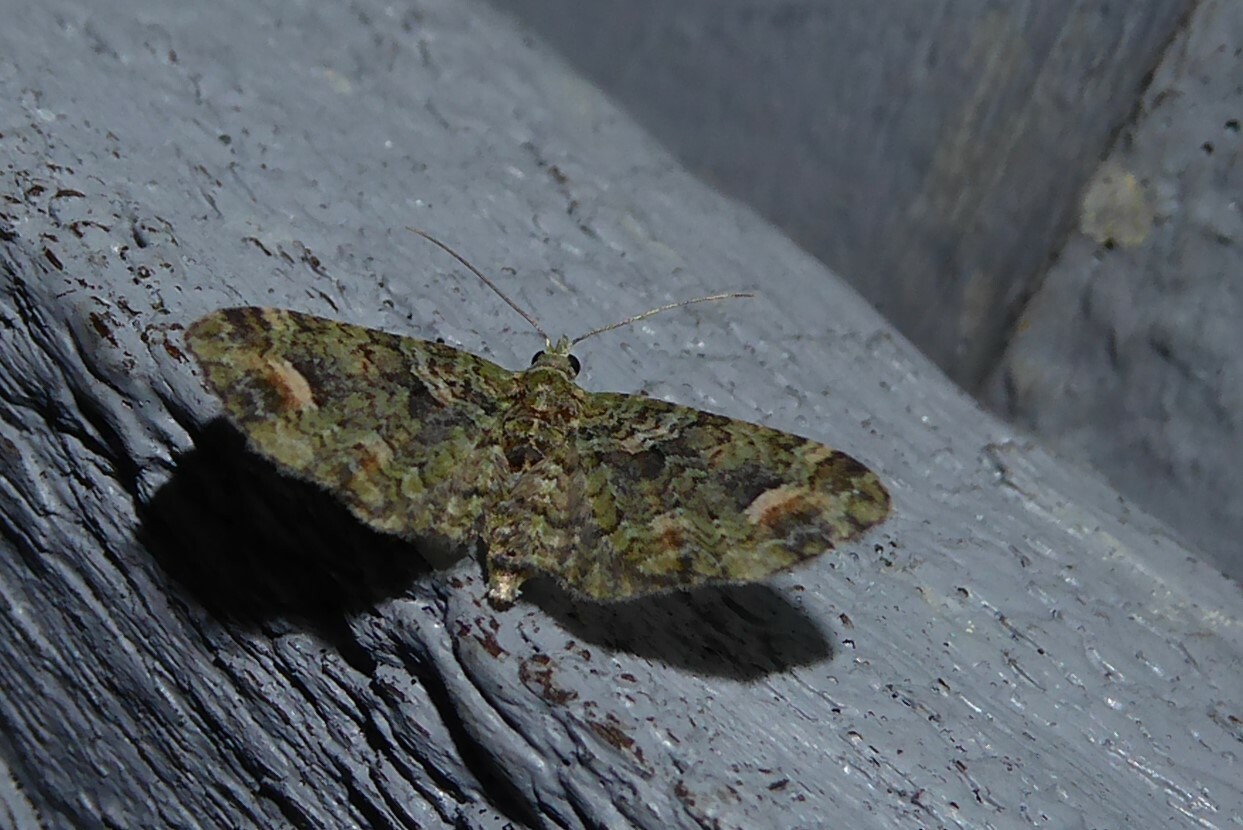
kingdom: Animalia
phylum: Arthropoda
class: Insecta
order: Lepidoptera
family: Geometridae
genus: Idaea
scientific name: Idaea mutanda
